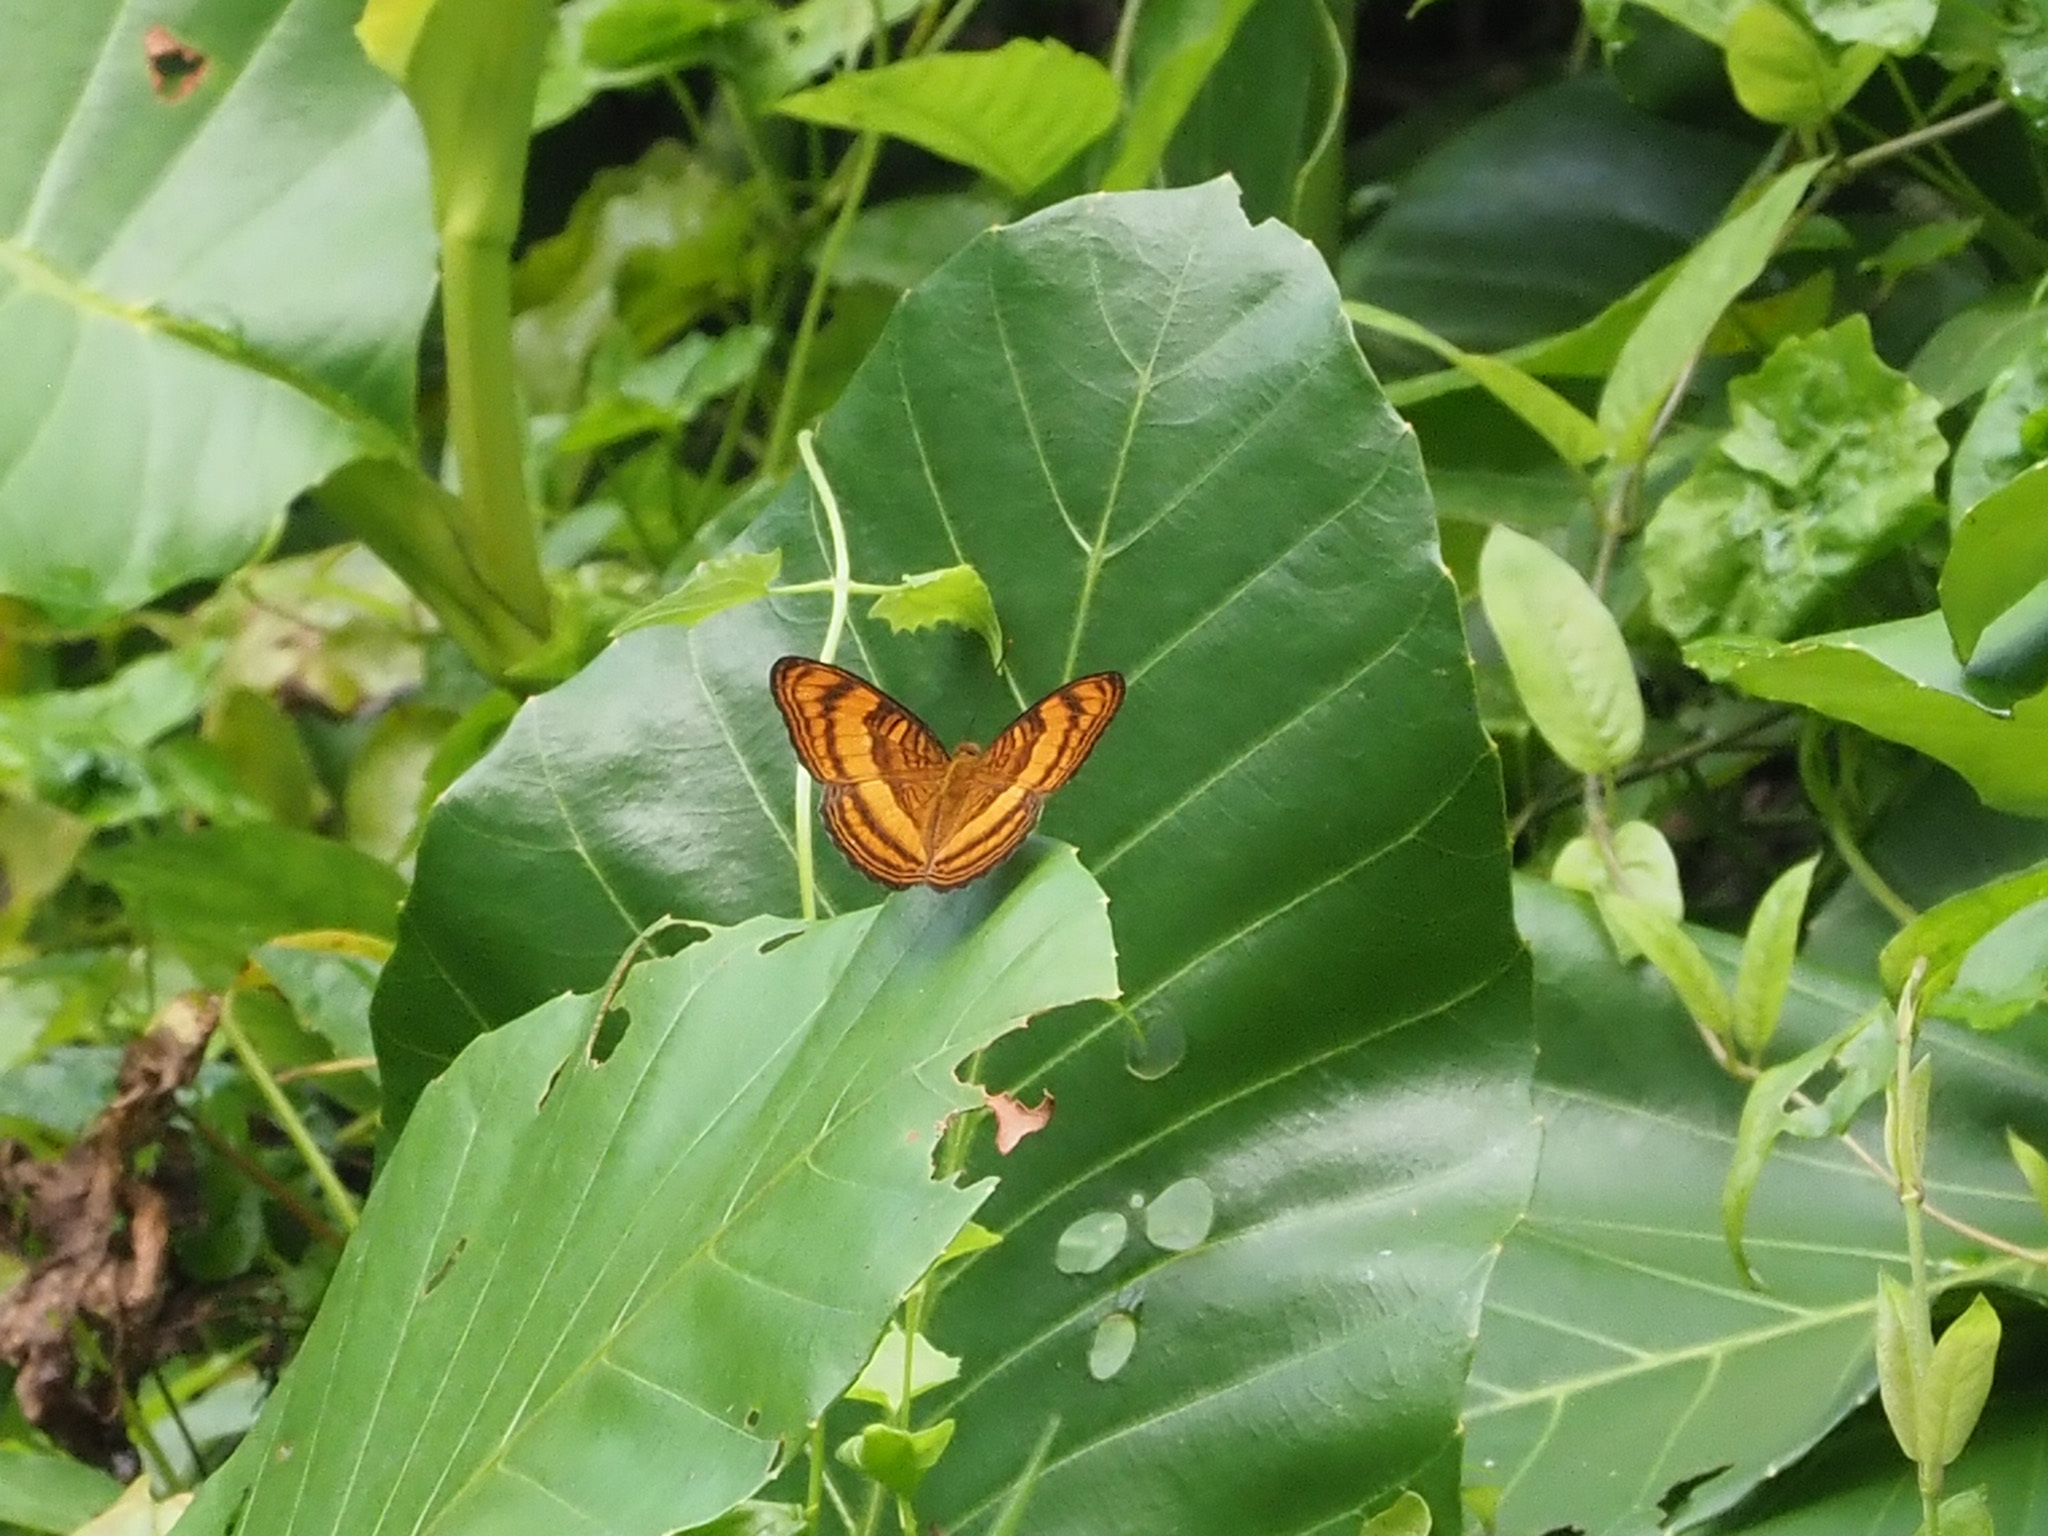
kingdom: Animalia
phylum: Arthropoda
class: Insecta
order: Lepidoptera
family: Nymphalidae
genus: Pandita
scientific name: Pandita sinope
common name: Colonel
